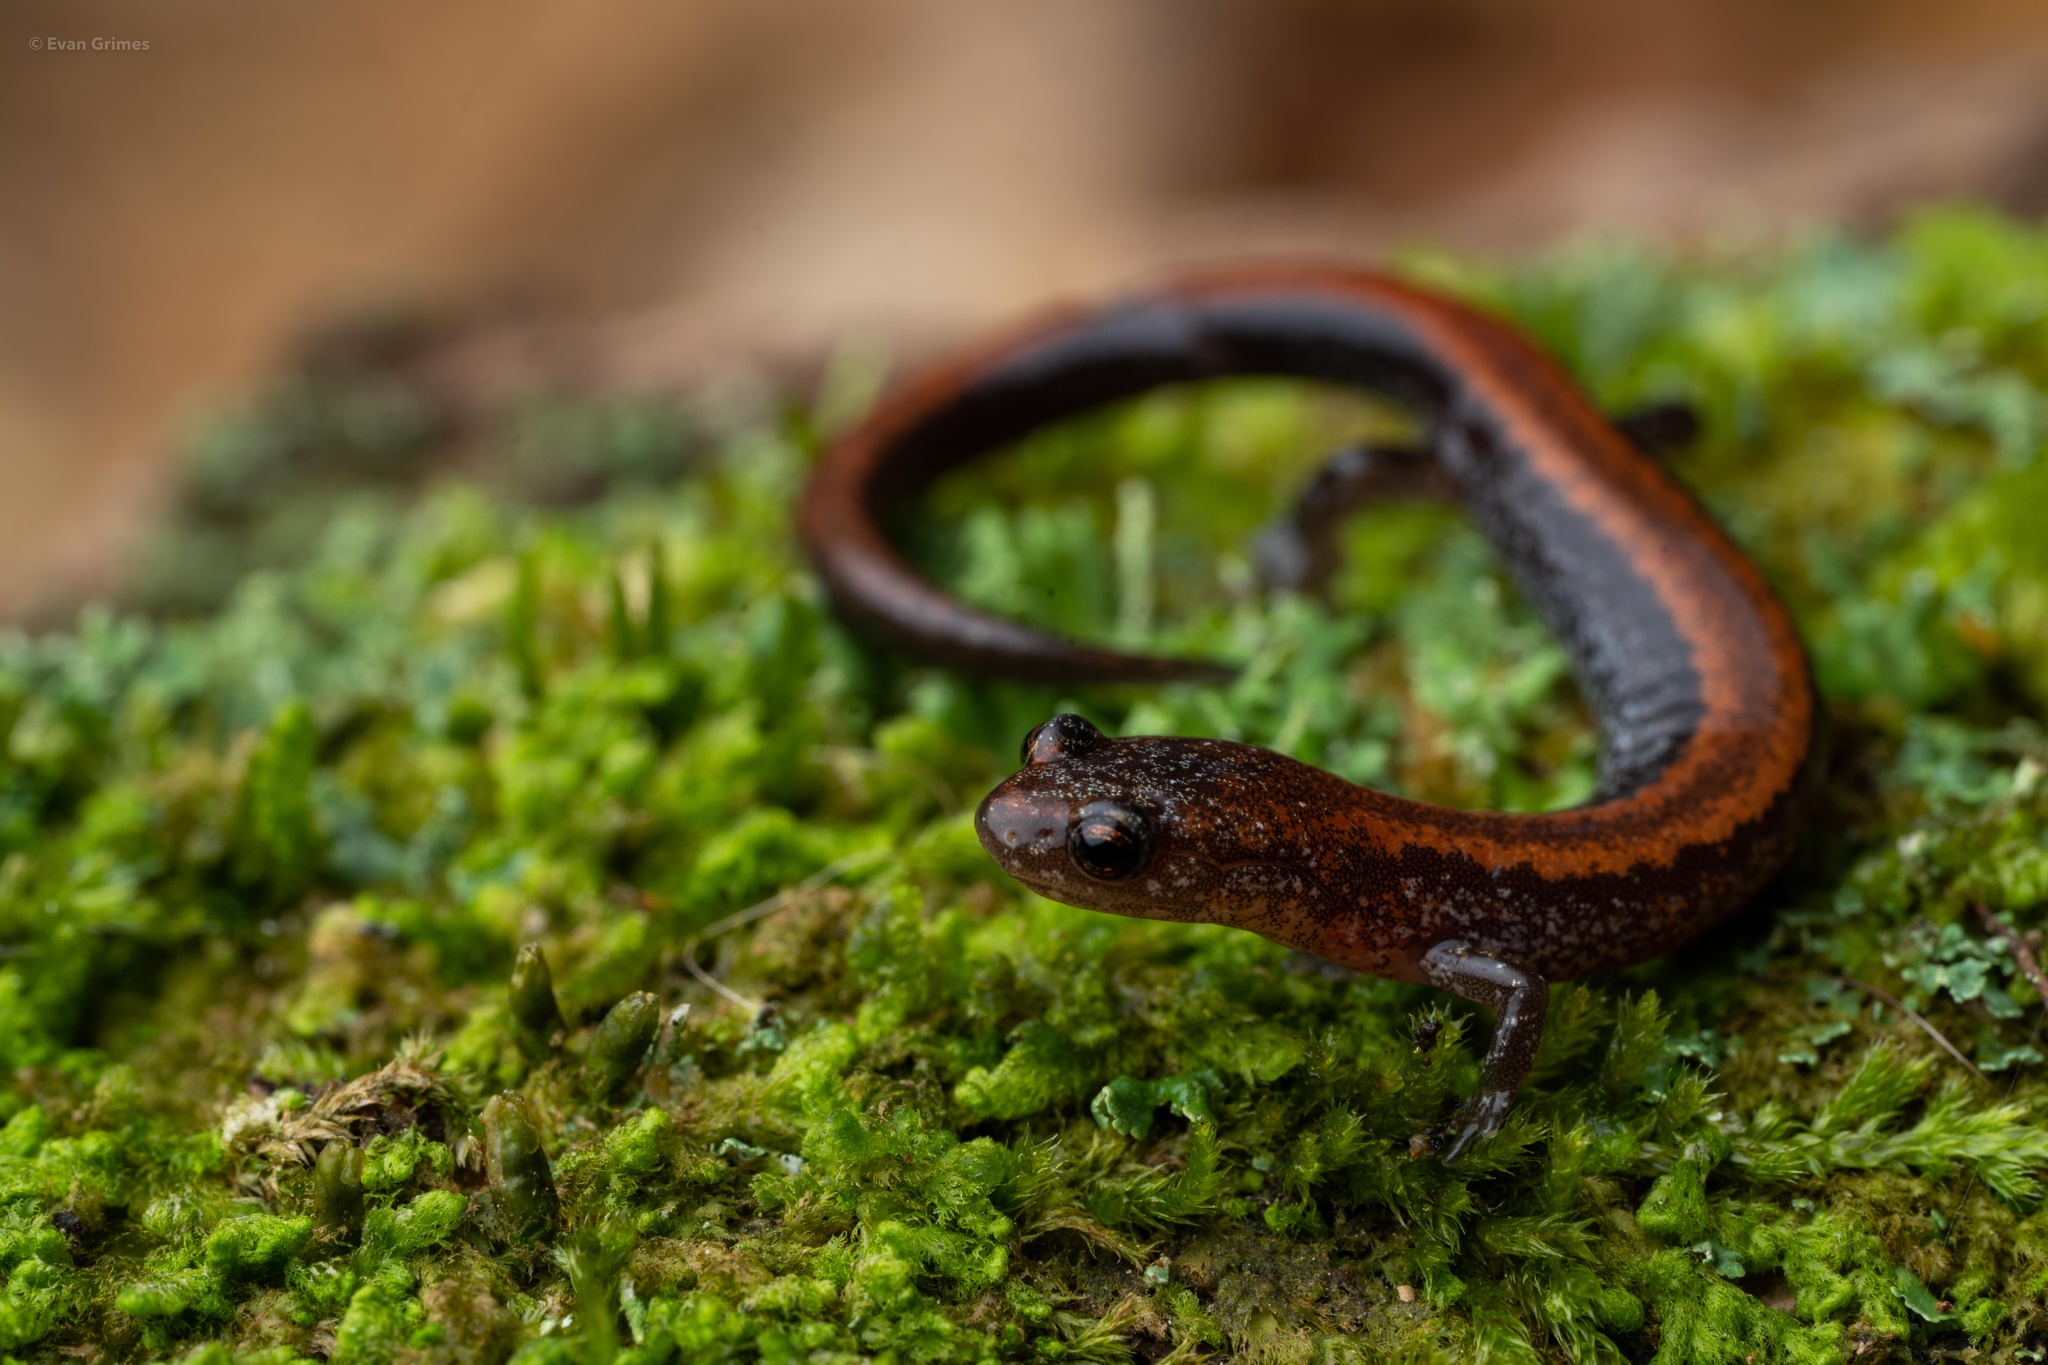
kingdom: Animalia
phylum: Chordata
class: Amphibia
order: Caudata
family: Plethodontidae
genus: Plethodon
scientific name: Plethodon cinereus
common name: Redback salamander
